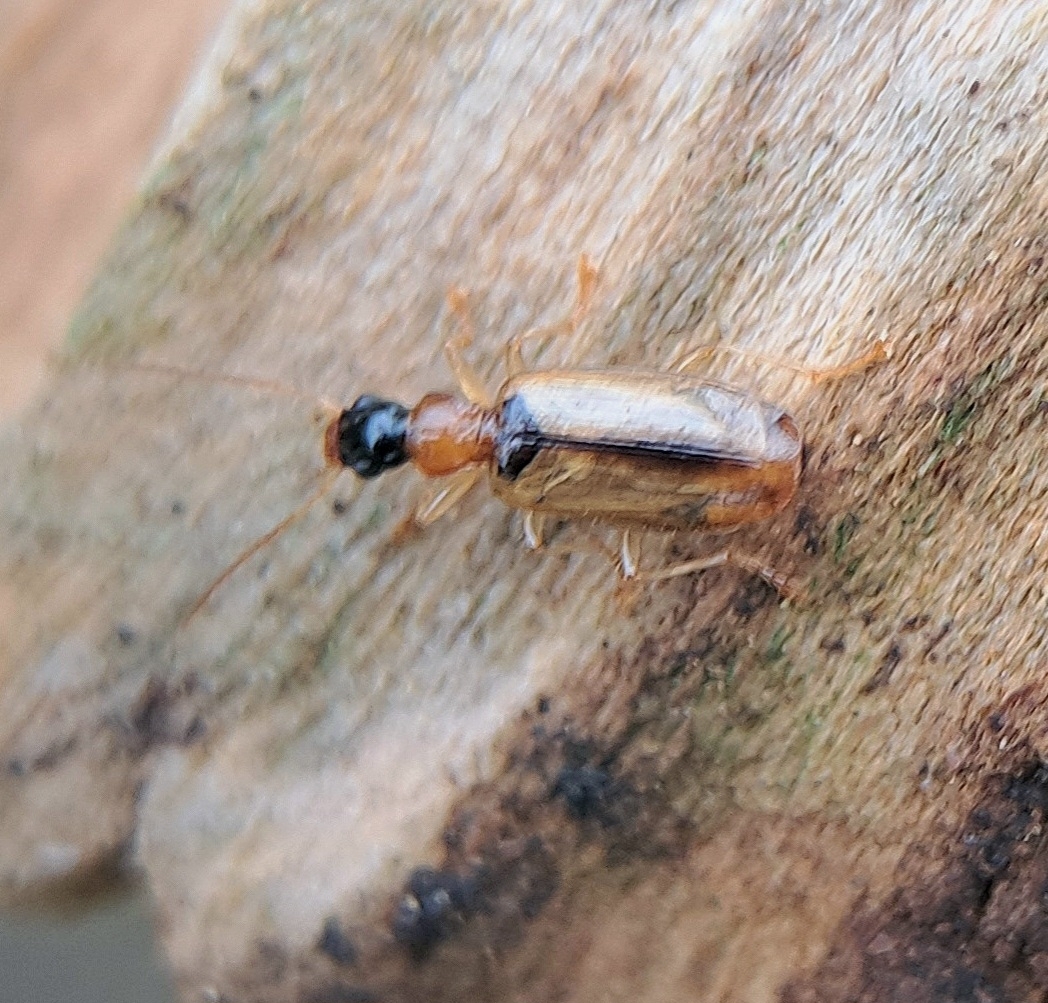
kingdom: Animalia
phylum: Arthropoda
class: Insecta
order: Coleoptera
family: Carabidae
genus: Demetrias
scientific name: Demetrias atricapillus
